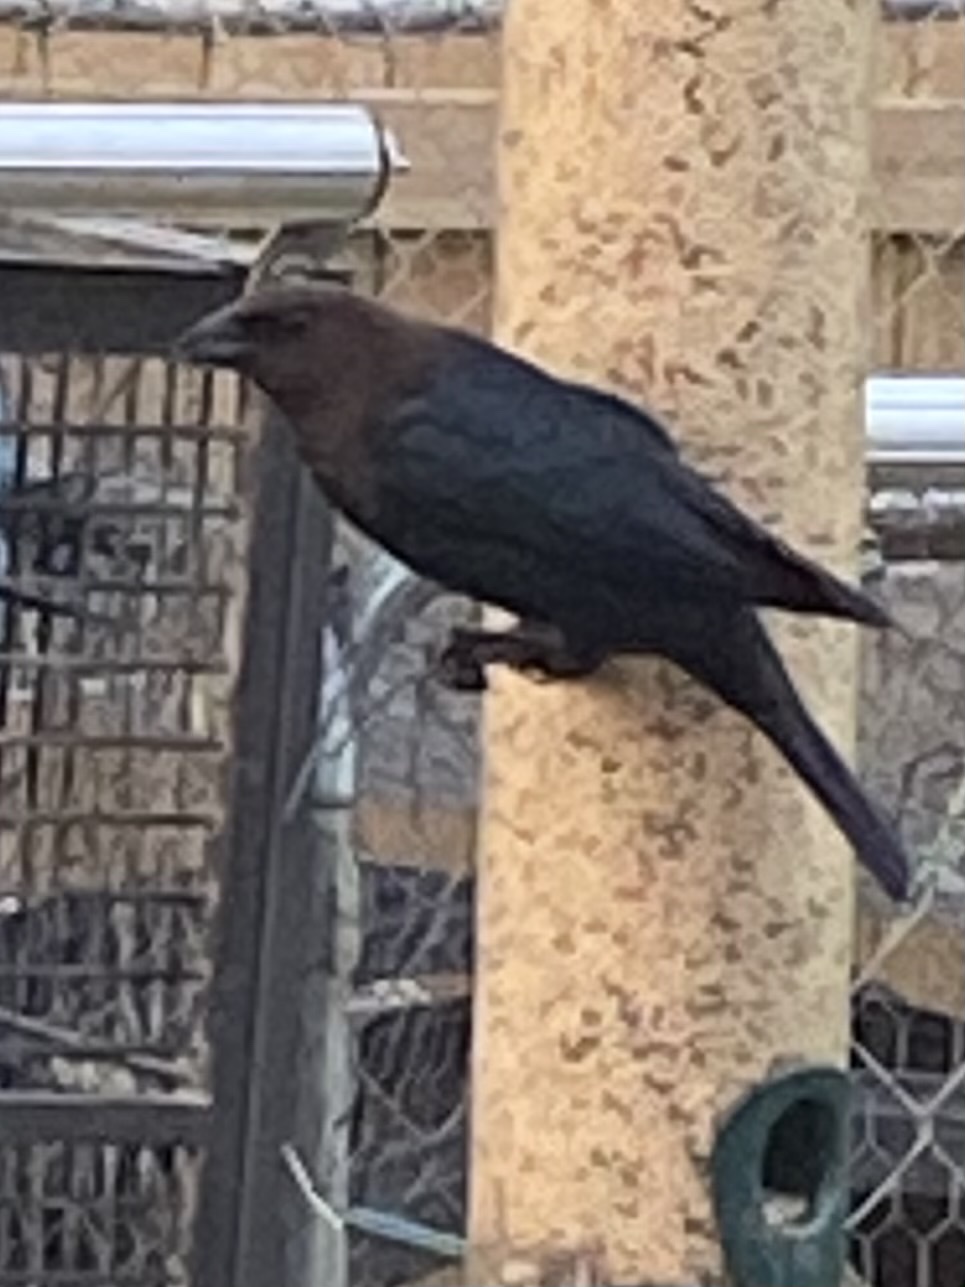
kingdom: Animalia
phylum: Chordata
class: Aves
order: Passeriformes
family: Icteridae
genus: Molothrus
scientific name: Molothrus ater
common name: Brown-headed cowbird
